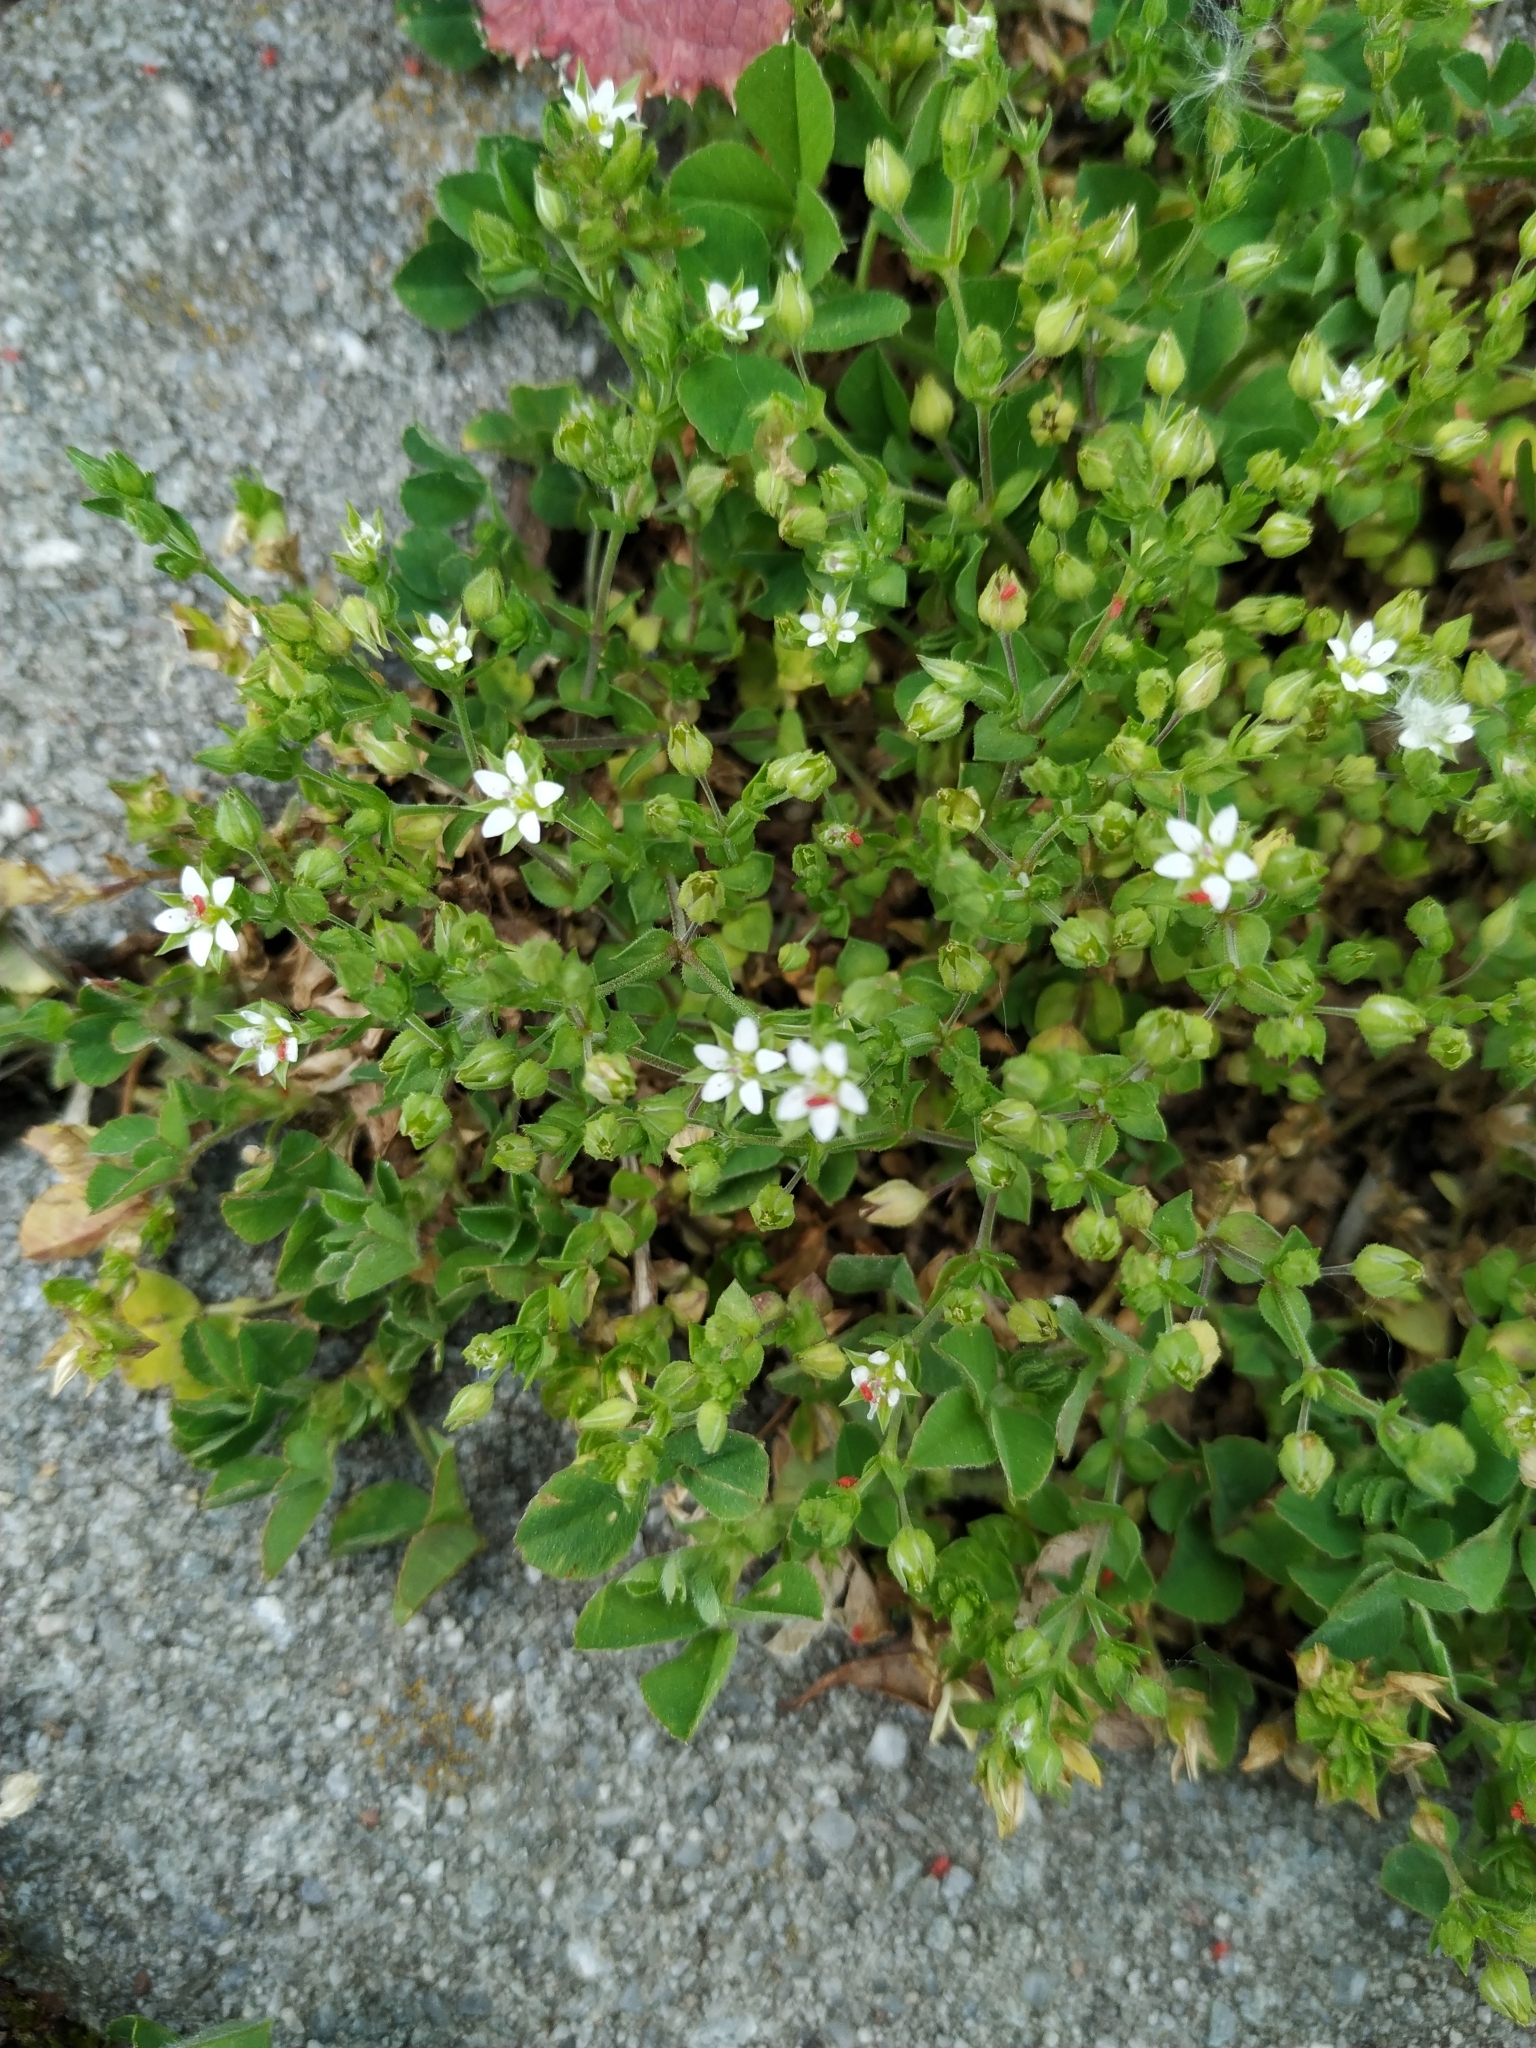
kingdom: Plantae
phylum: Tracheophyta
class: Magnoliopsida
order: Caryophyllales
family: Caryophyllaceae
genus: Arenaria
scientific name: Arenaria serpyllifolia
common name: Thyme-leaved sandwort
